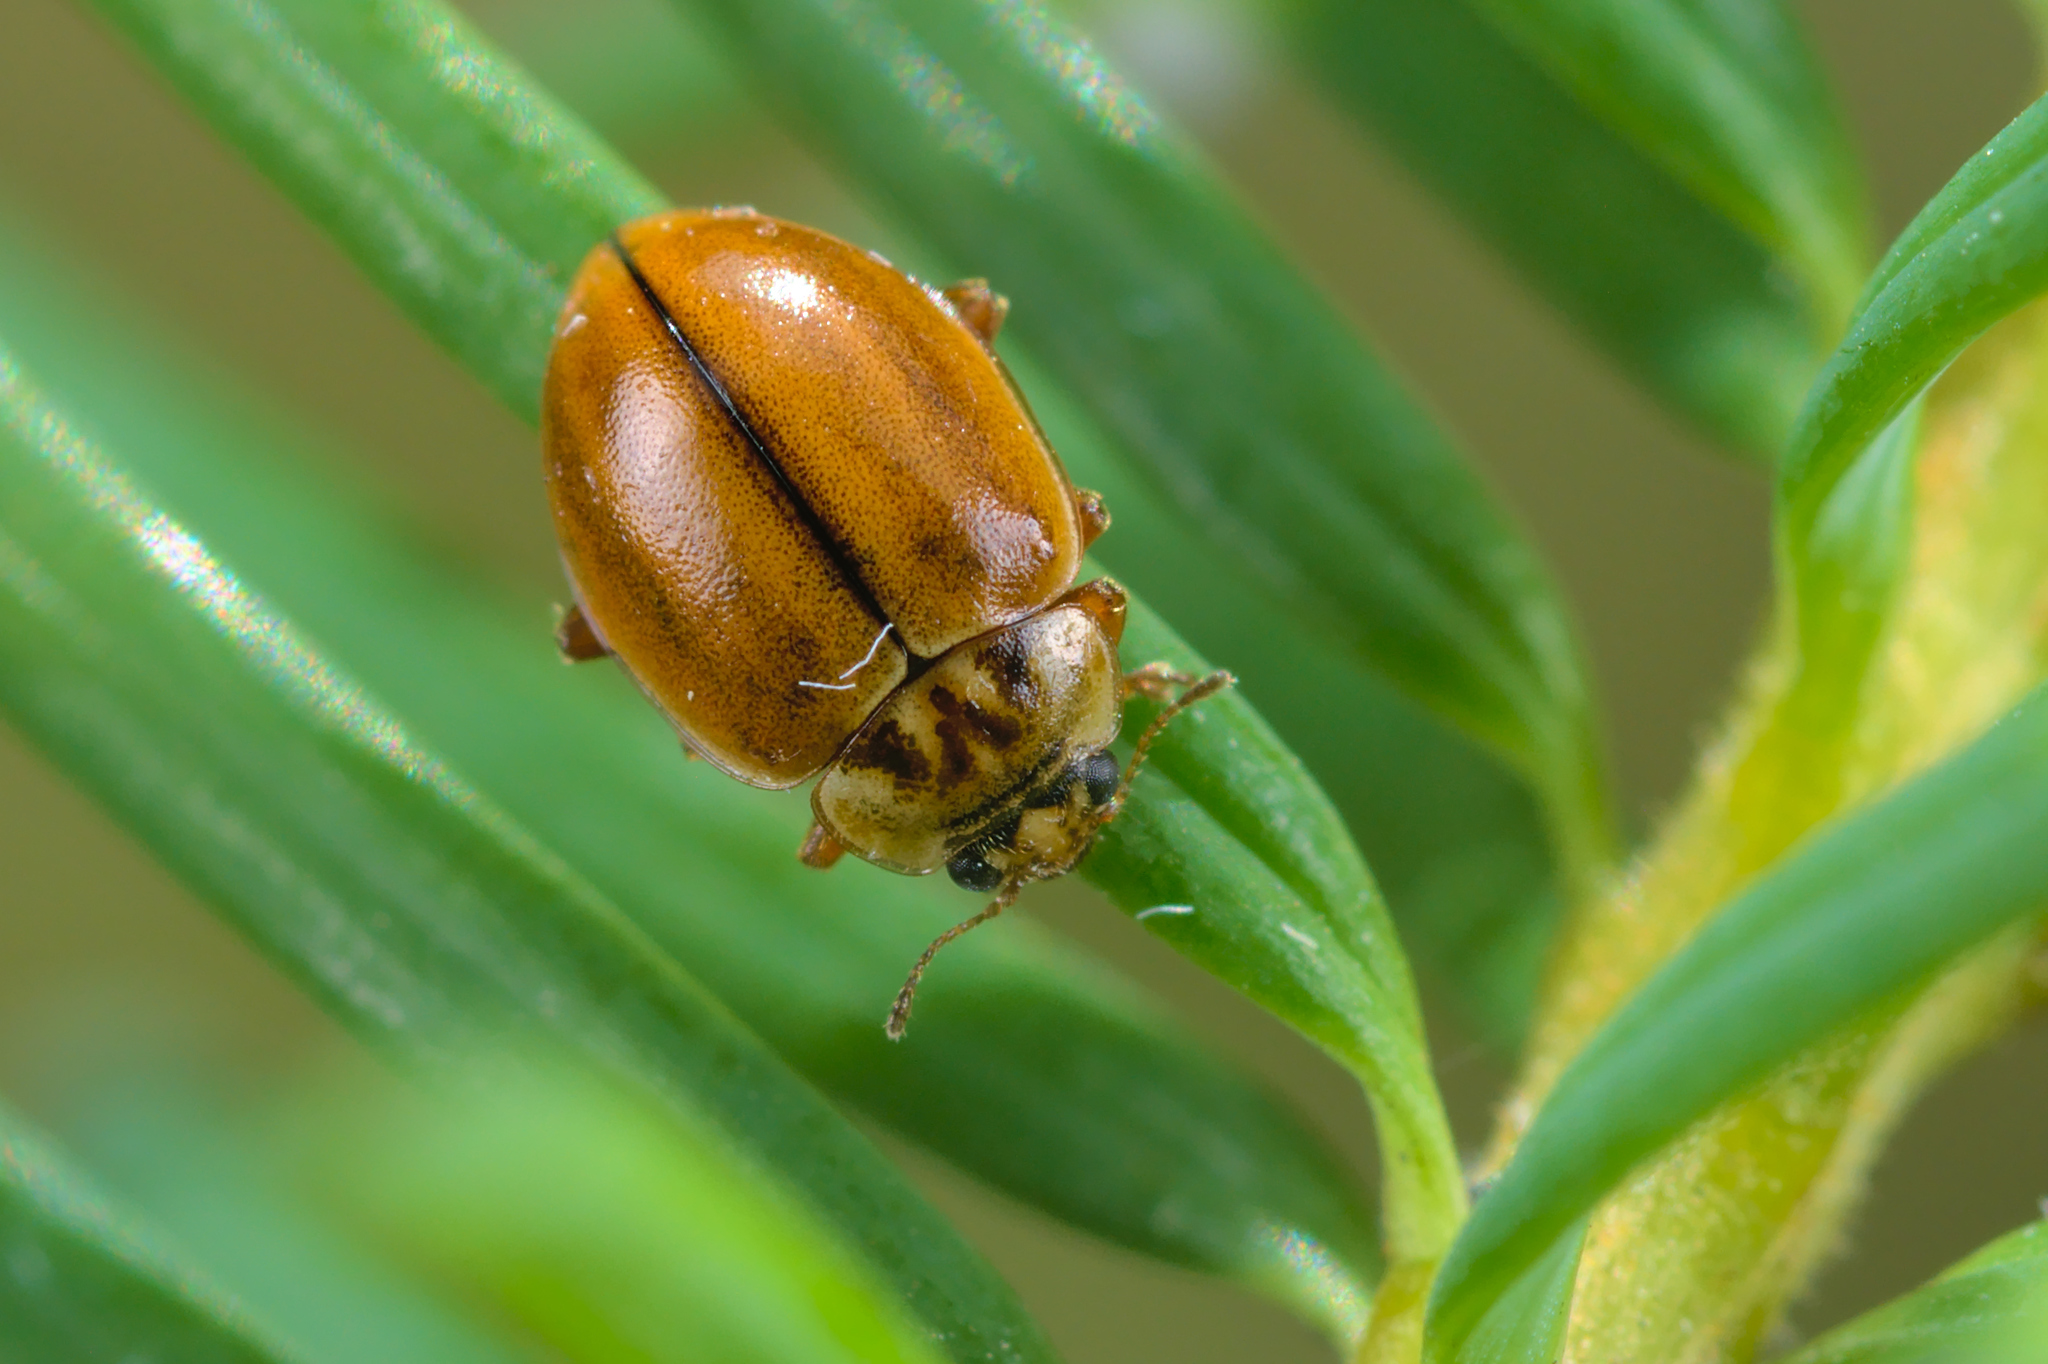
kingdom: Animalia
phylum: Arthropoda
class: Insecta
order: Coleoptera
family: Coccinellidae
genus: Aphidecta
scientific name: Aphidecta obliterata
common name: Larch ladybird
